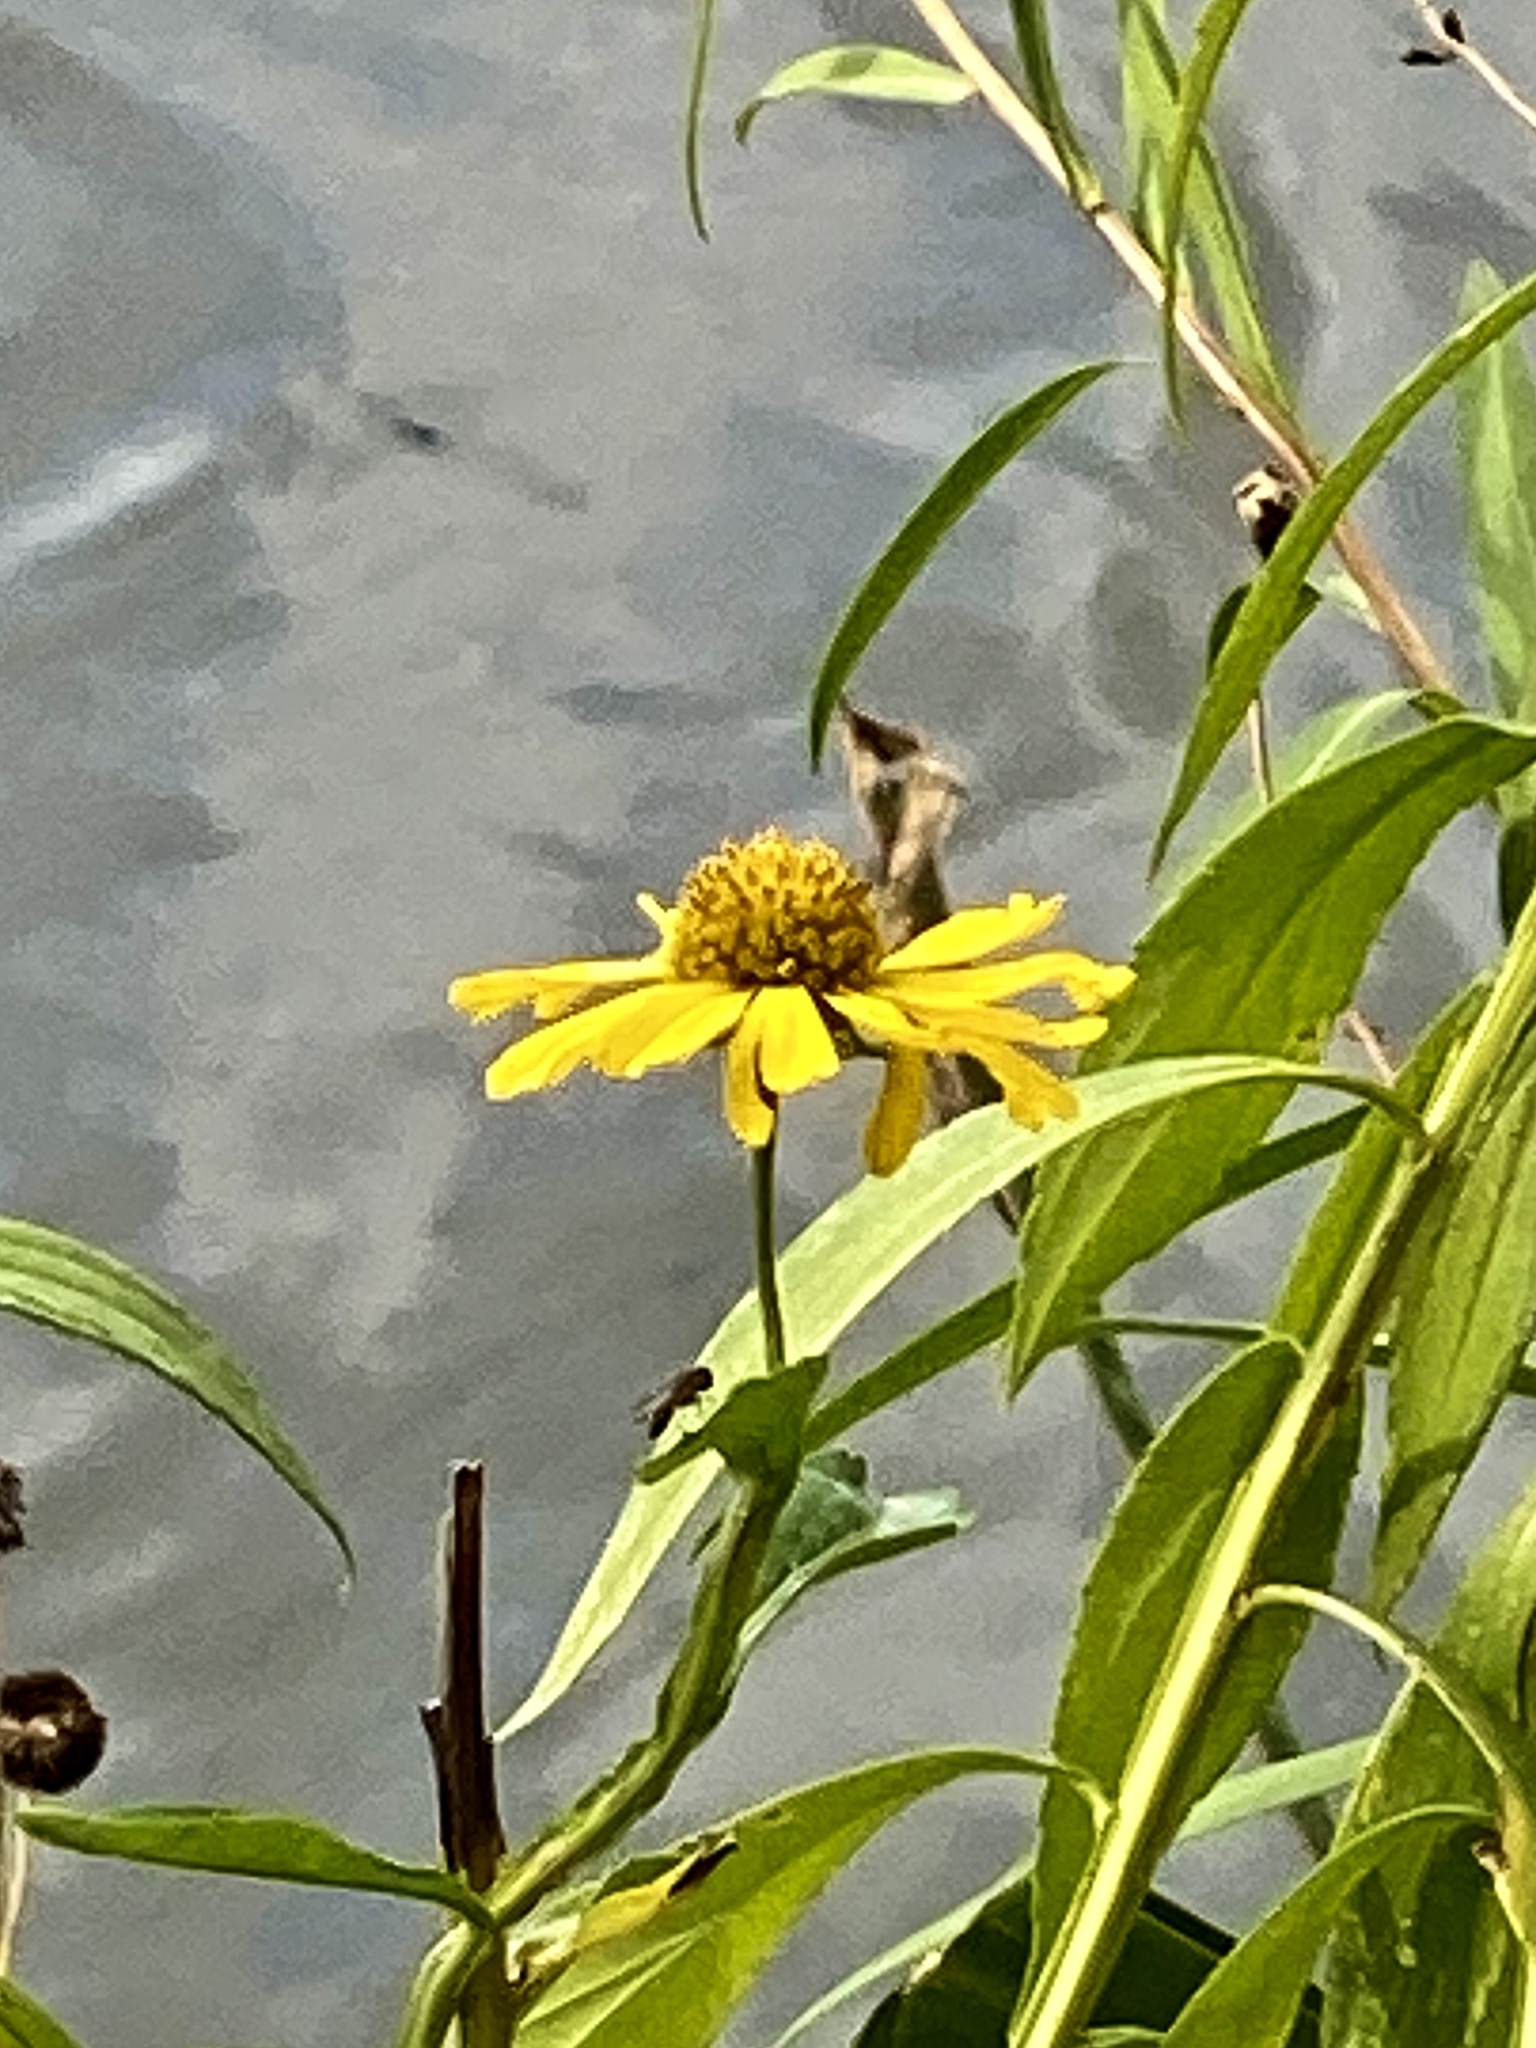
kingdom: Plantae
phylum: Tracheophyta
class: Magnoliopsida
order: Asterales
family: Asteraceae
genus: Helenium
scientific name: Helenium autumnale
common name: Sneezeweed
